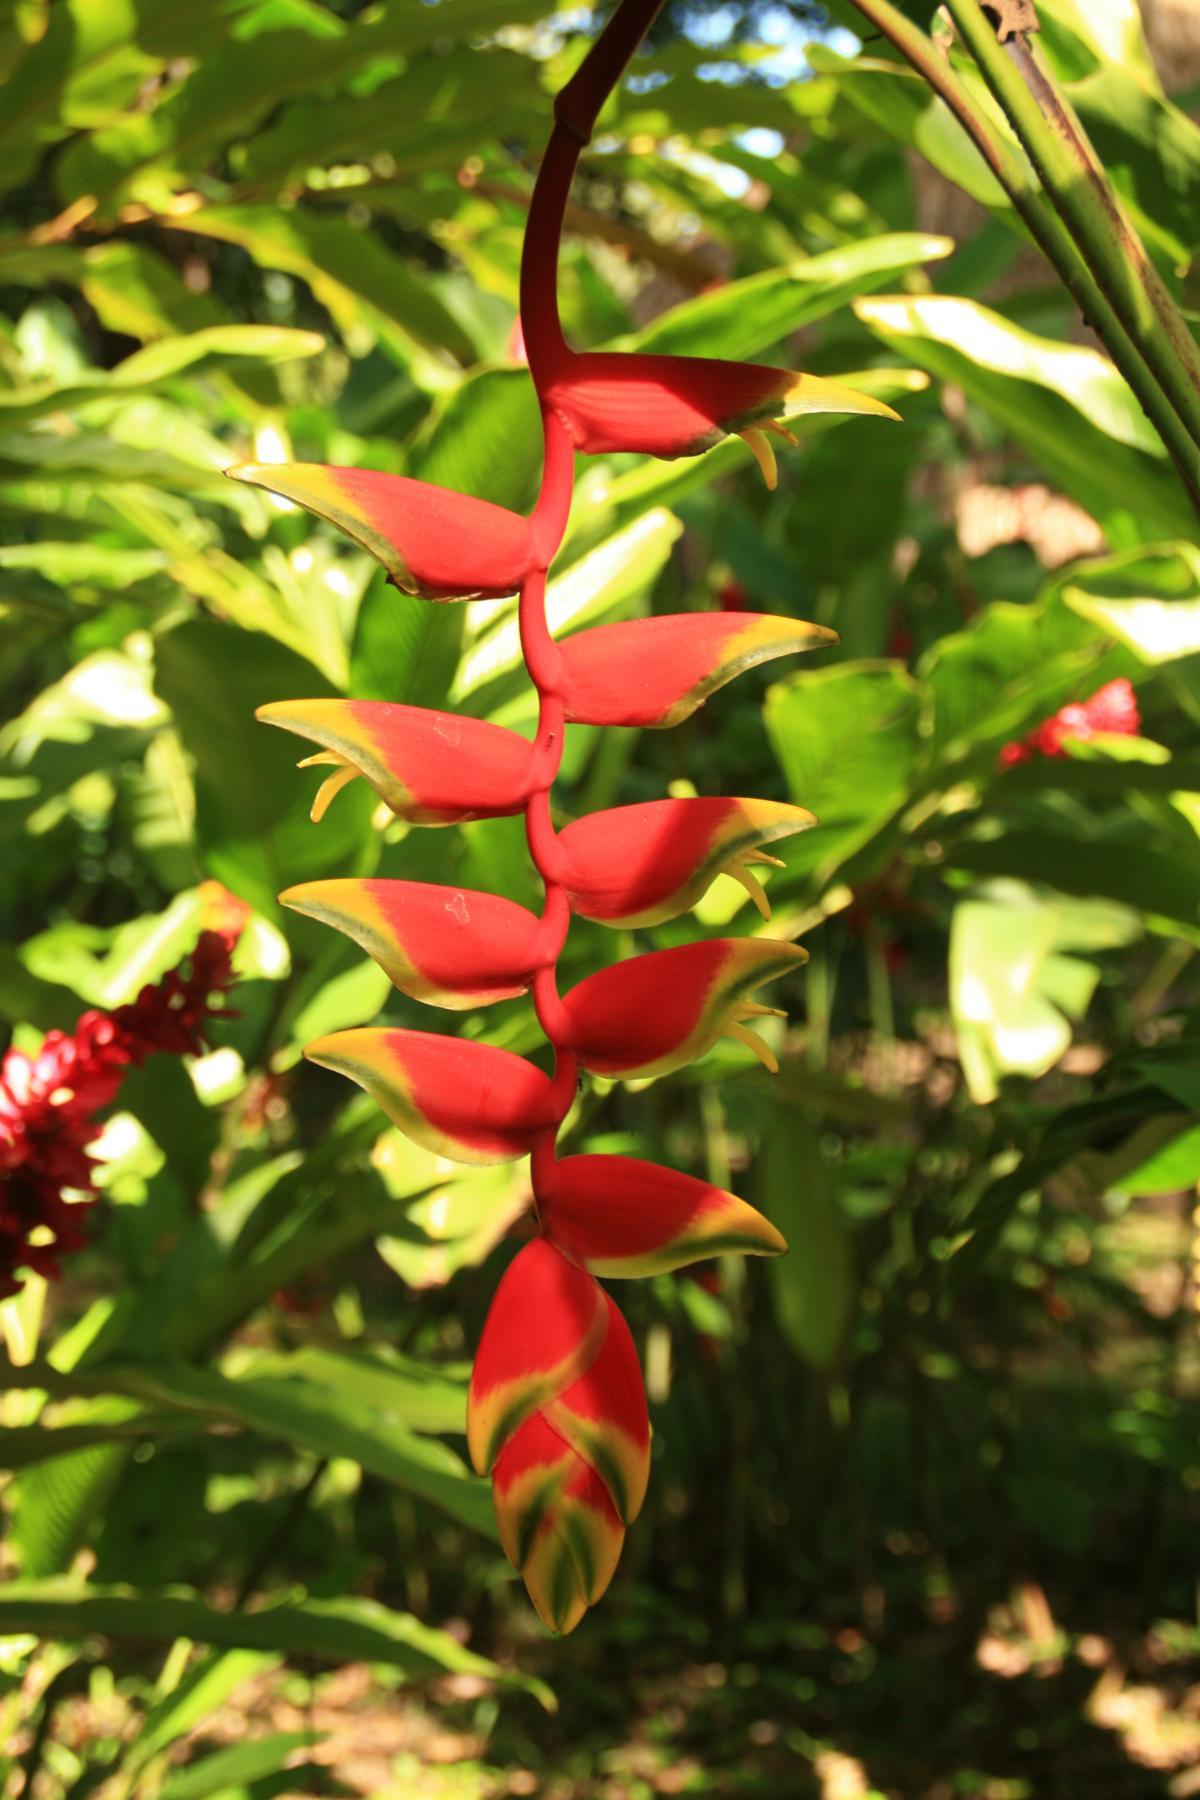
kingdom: Plantae
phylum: Tracheophyta
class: Liliopsida
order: Zingiberales
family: Heliconiaceae
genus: Heliconia
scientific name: Heliconia rostrata
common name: False bird of paradise
